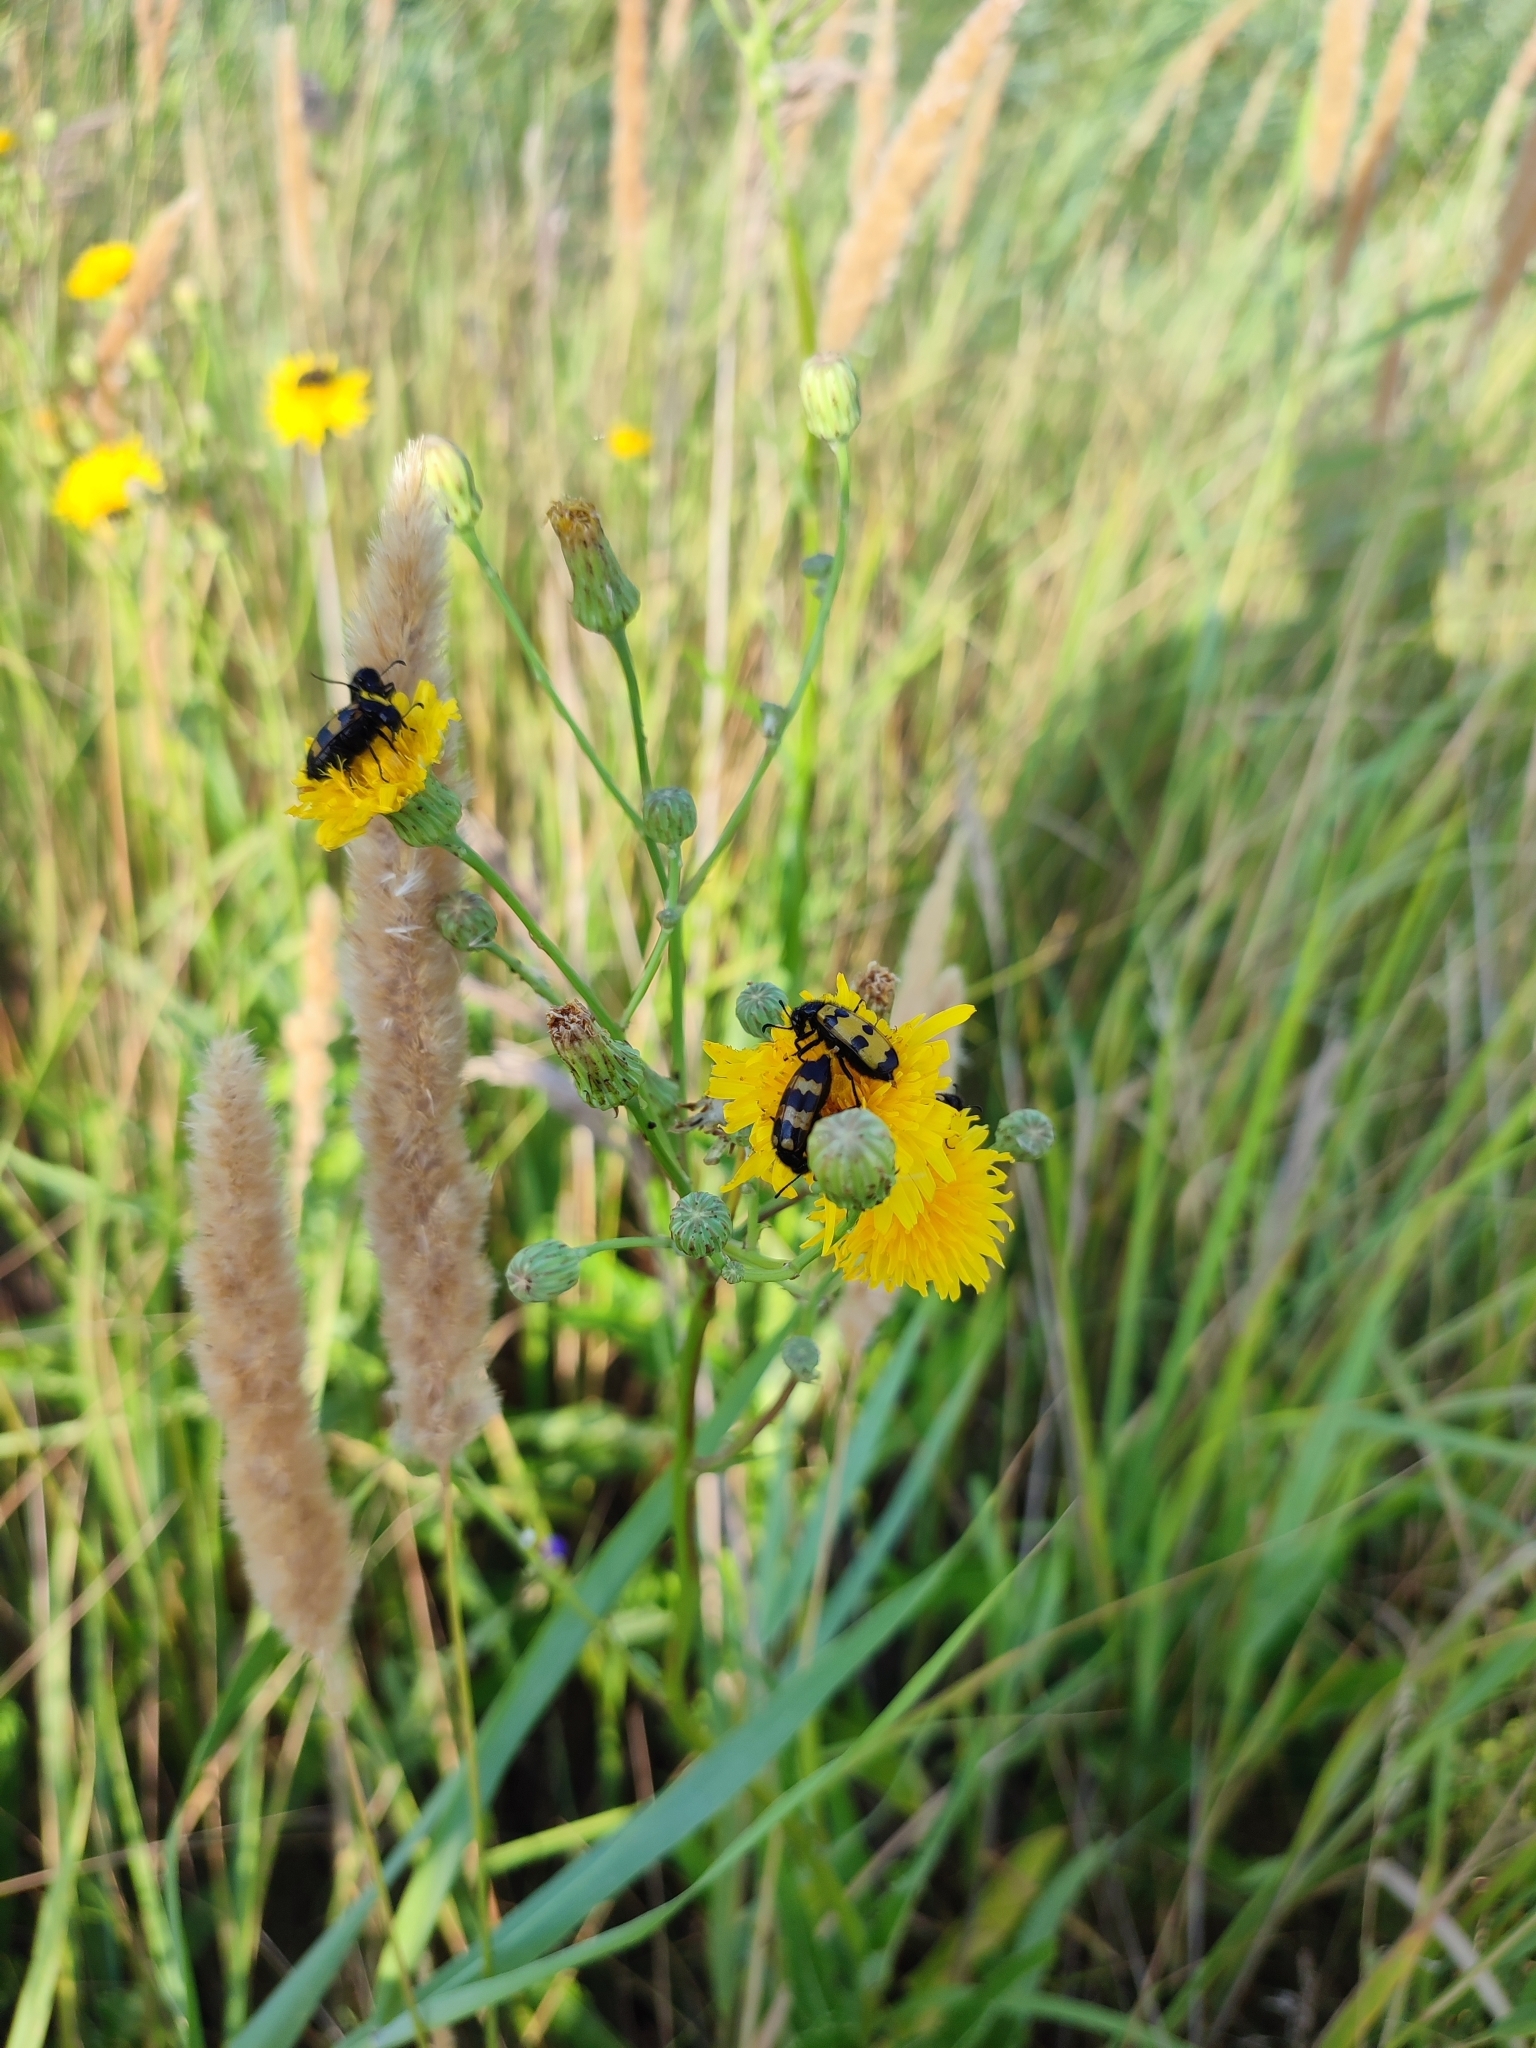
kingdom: Plantae
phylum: Tracheophyta
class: Magnoliopsida
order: Asterales
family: Asteraceae
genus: Sonchus
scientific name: Sonchus arvensis
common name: Perennial sow-thistle
